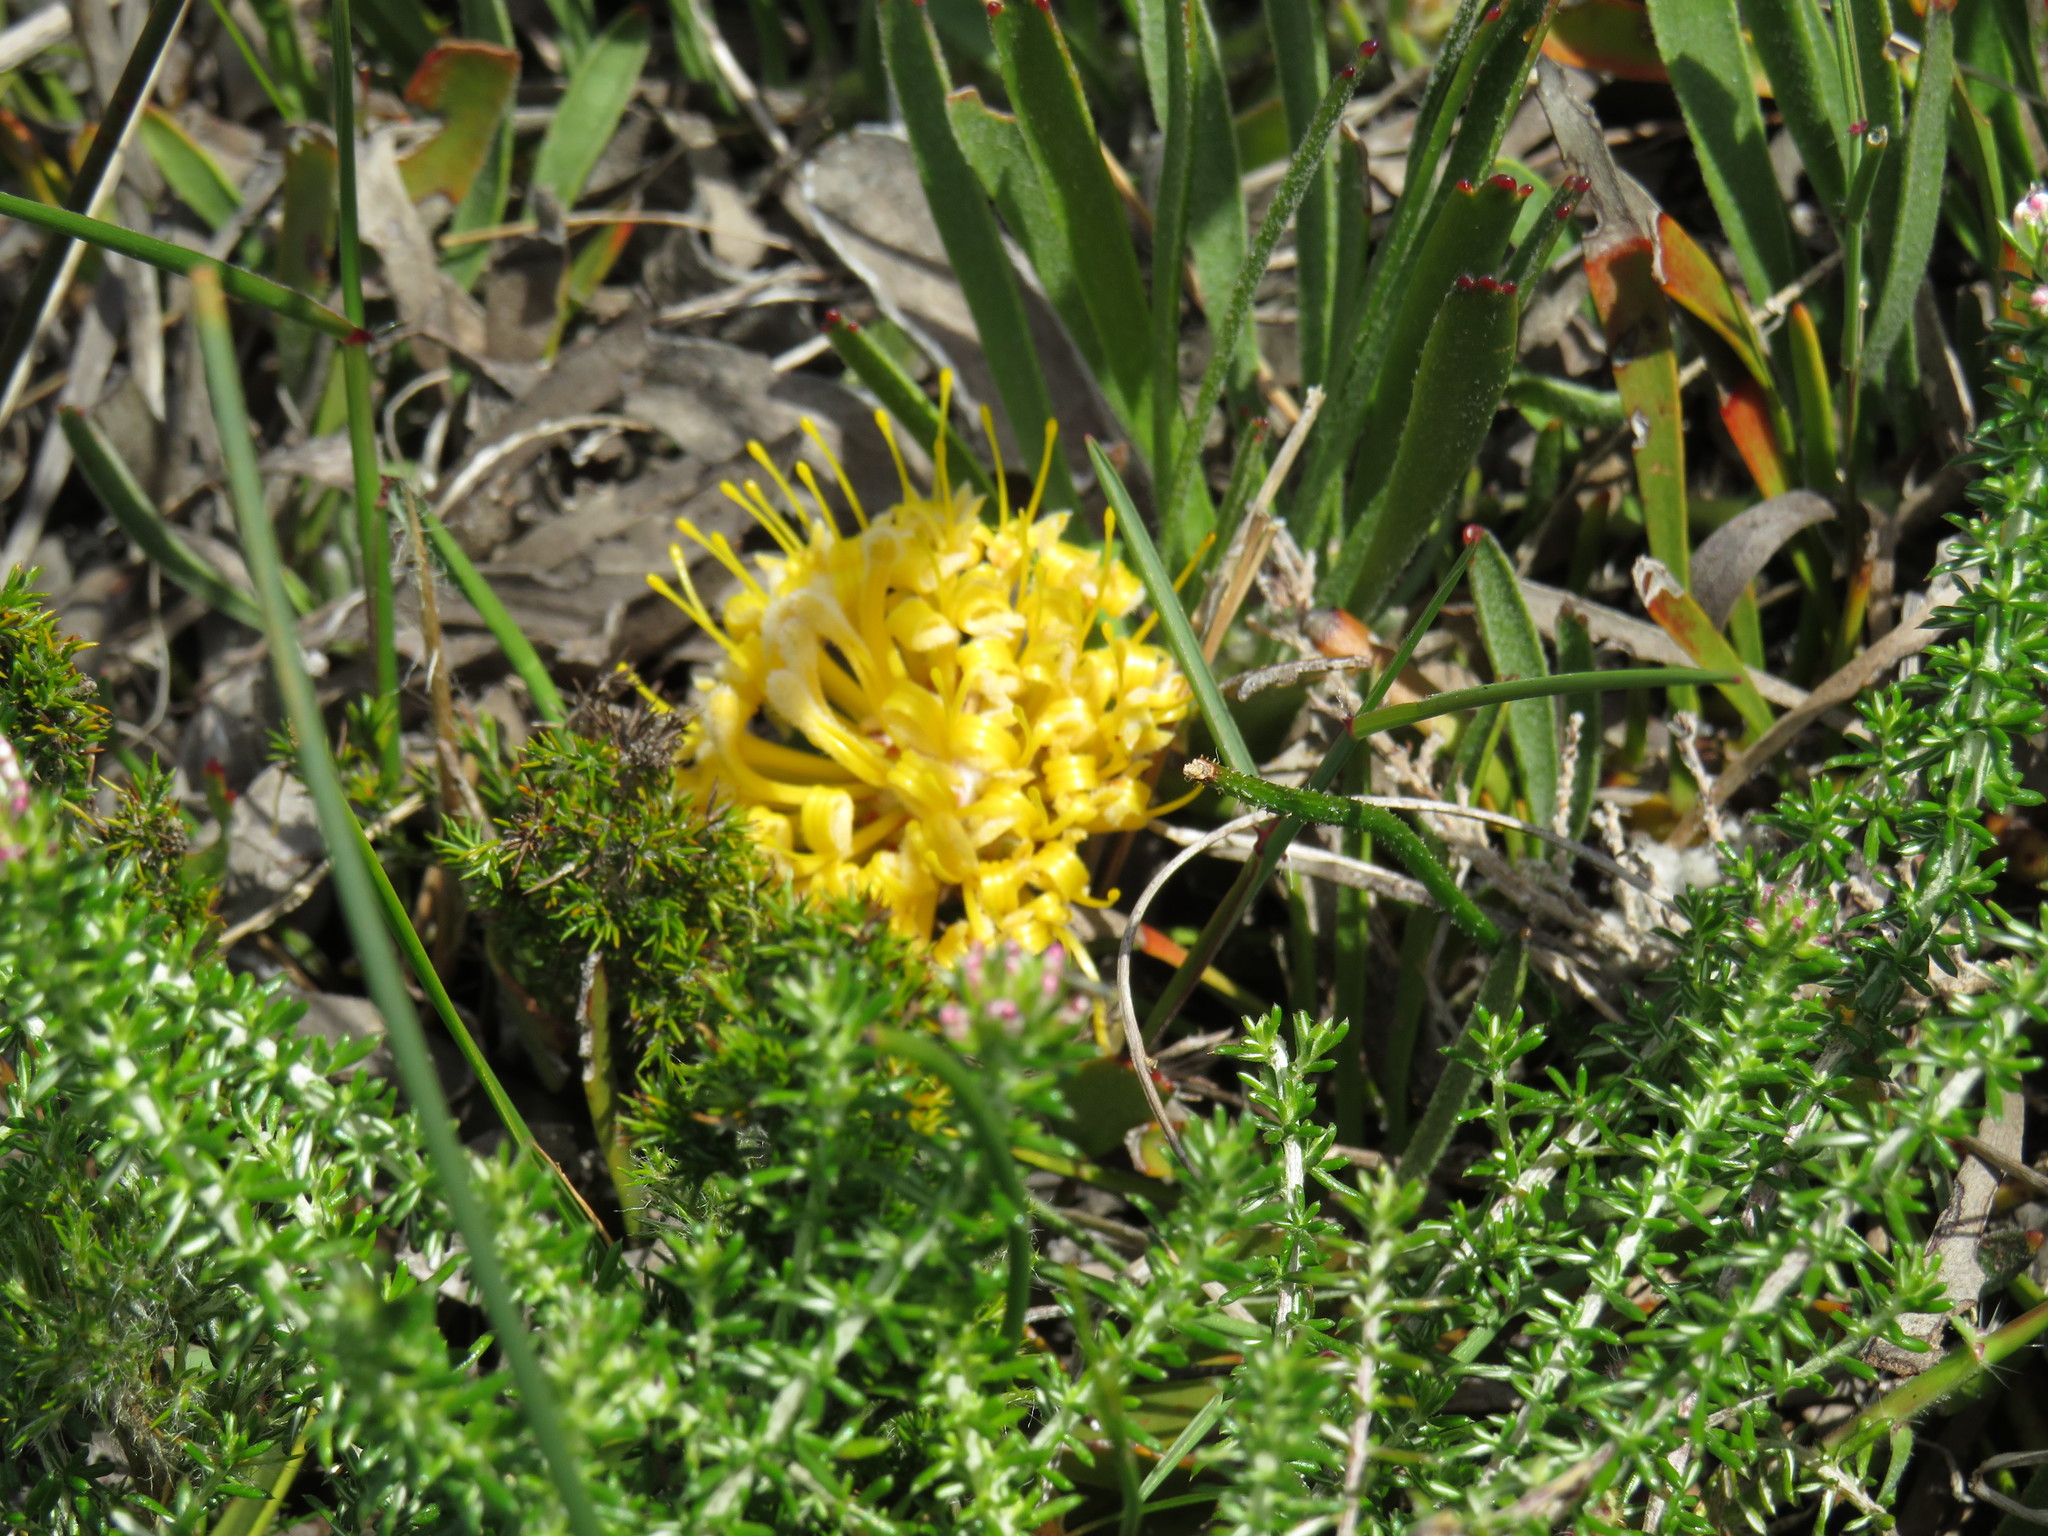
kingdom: Plantae
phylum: Tracheophyta
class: Magnoliopsida
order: Proteales
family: Proteaceae
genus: Leucospermum
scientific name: Leucospermum hypophyllocarpodendron
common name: Snakestem pincushion
